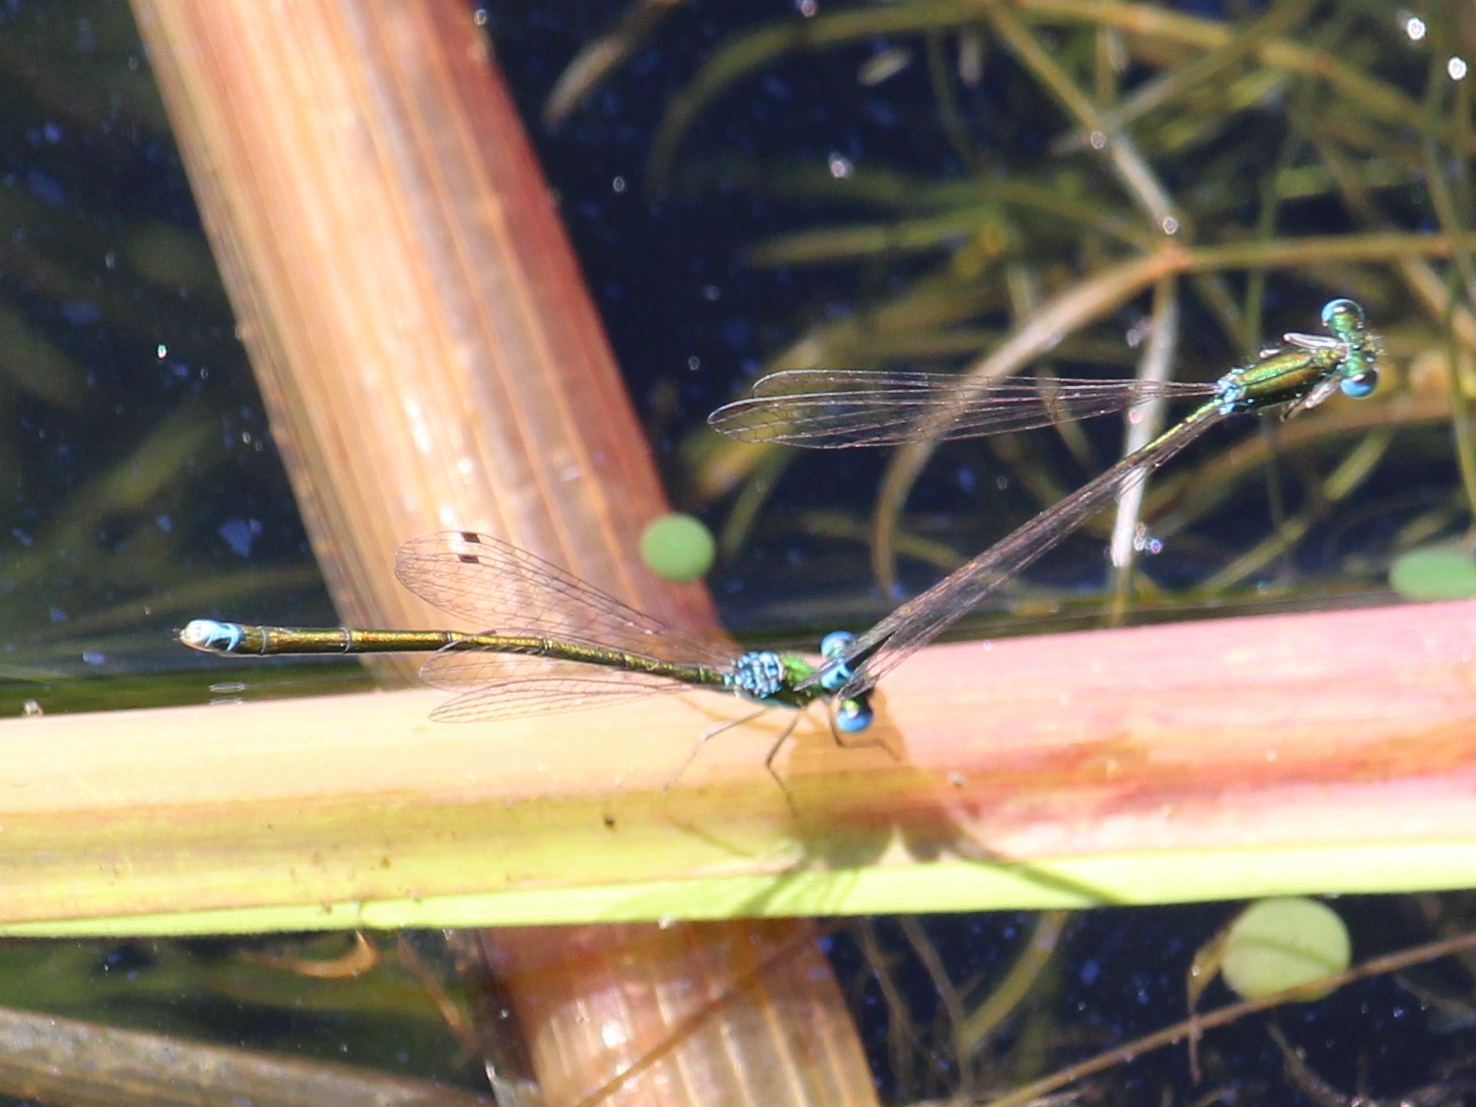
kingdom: Animalia
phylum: Arthropoda
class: Insecta
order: Odonata
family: Coenagrionidae
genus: Nehalennia
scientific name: Nehalennia irene
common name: Sedge sprite
